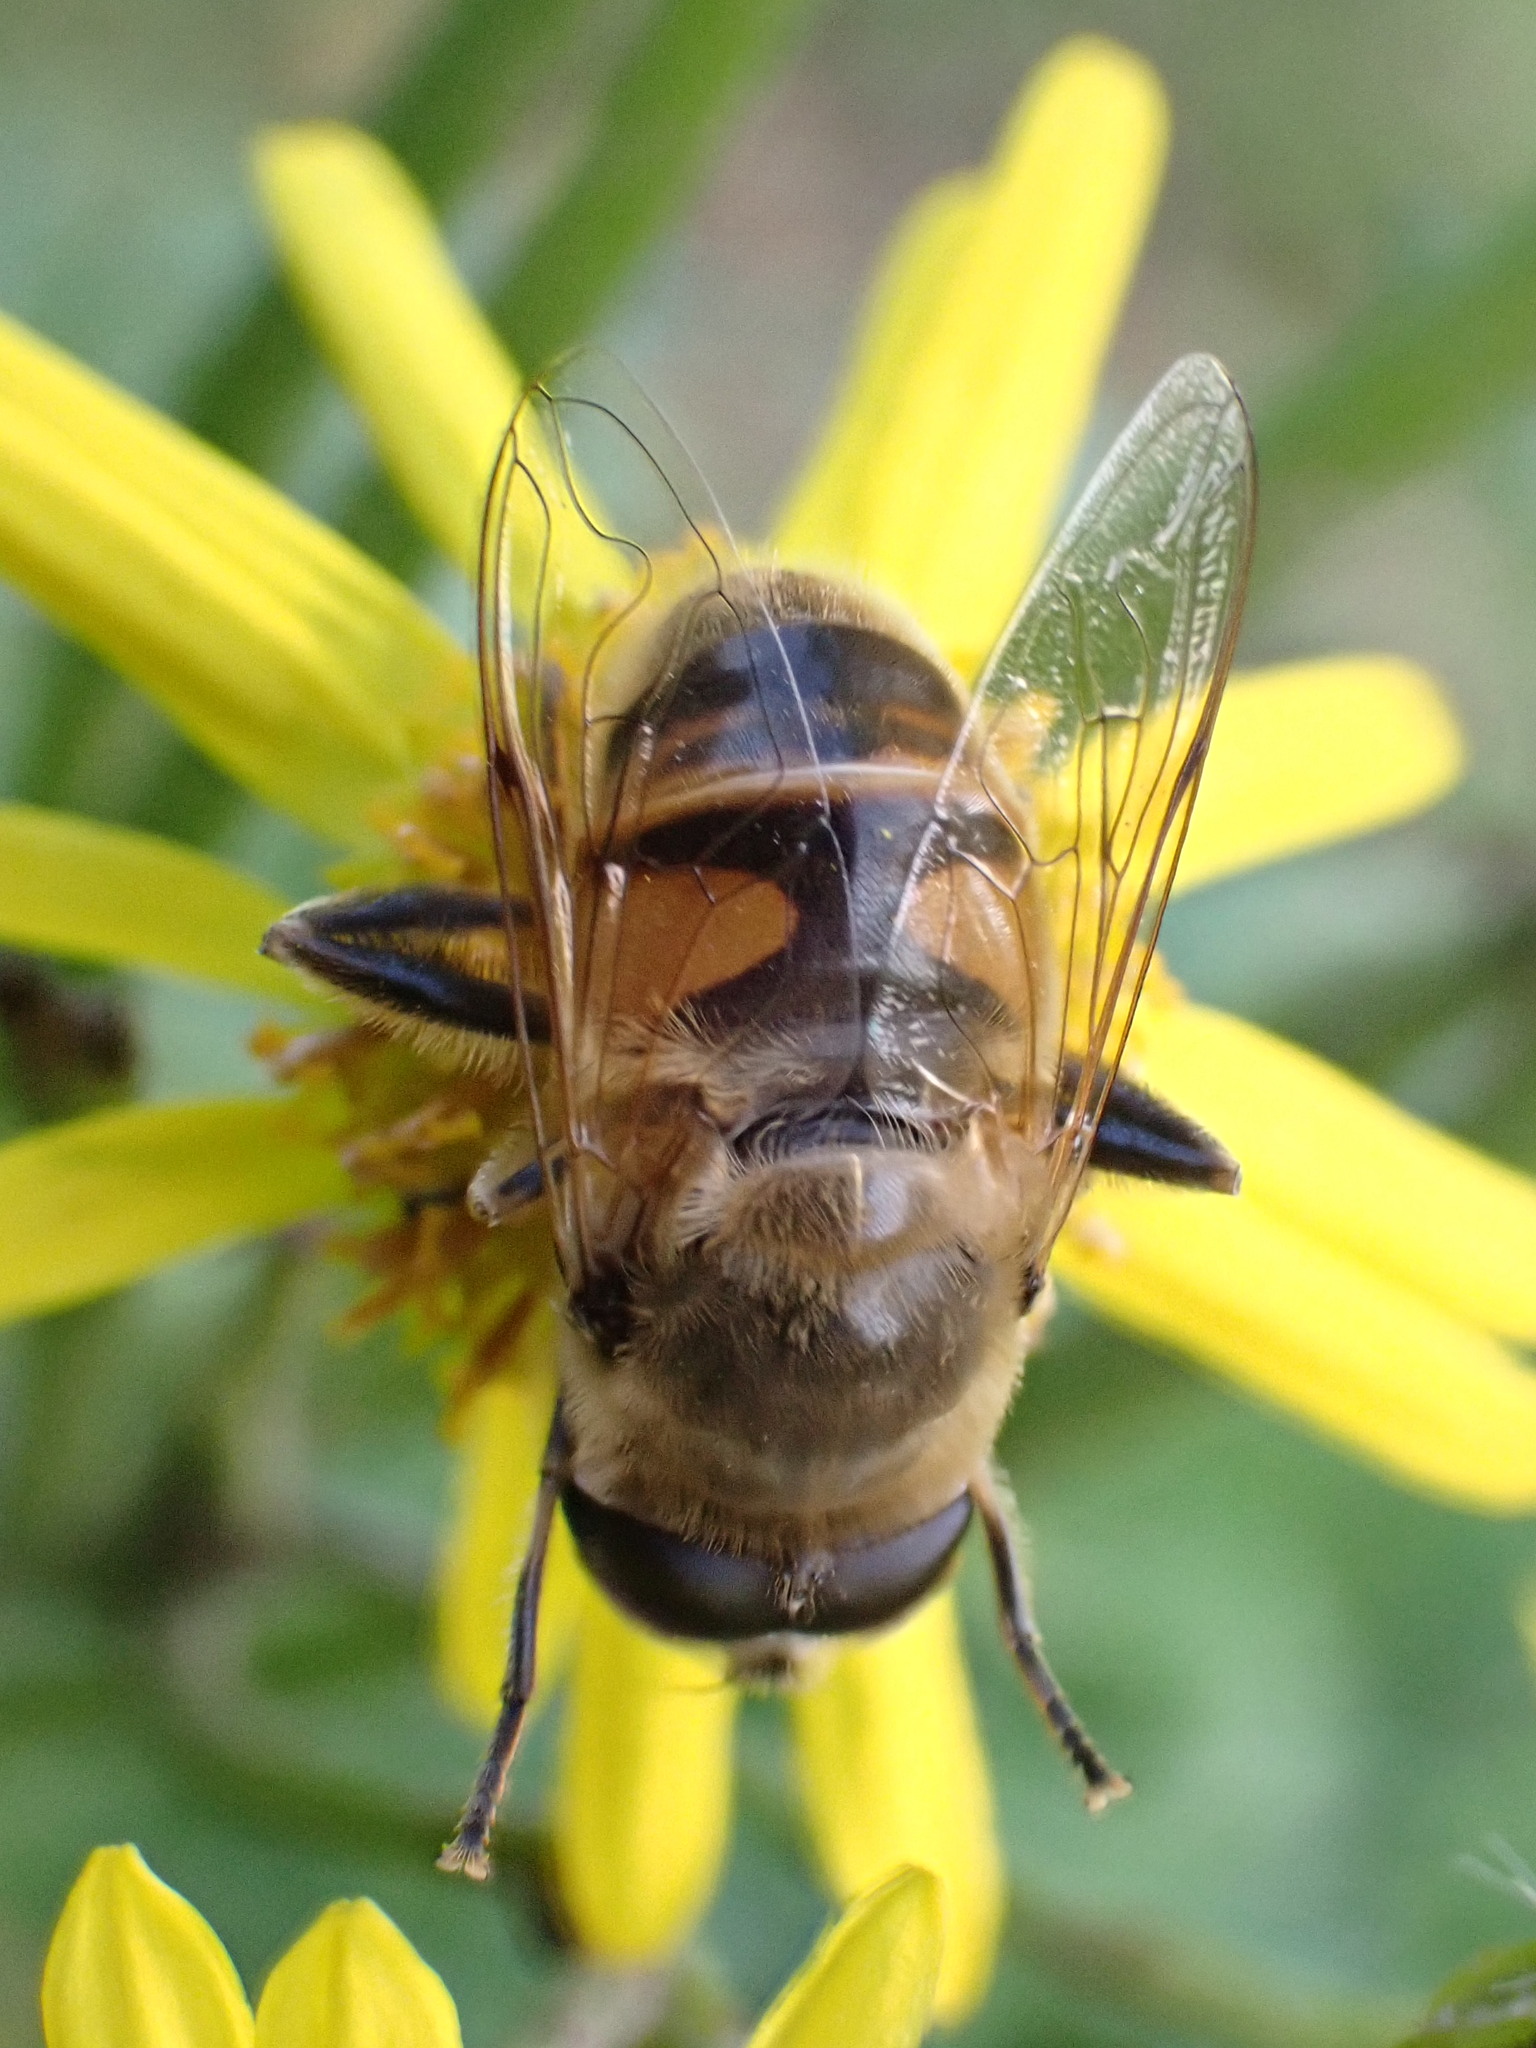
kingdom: Animalia
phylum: Arthropoda
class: Insecta
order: Diptera
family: Syrphidae
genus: Eristalis
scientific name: Eristalis tenax
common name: Drone fly
